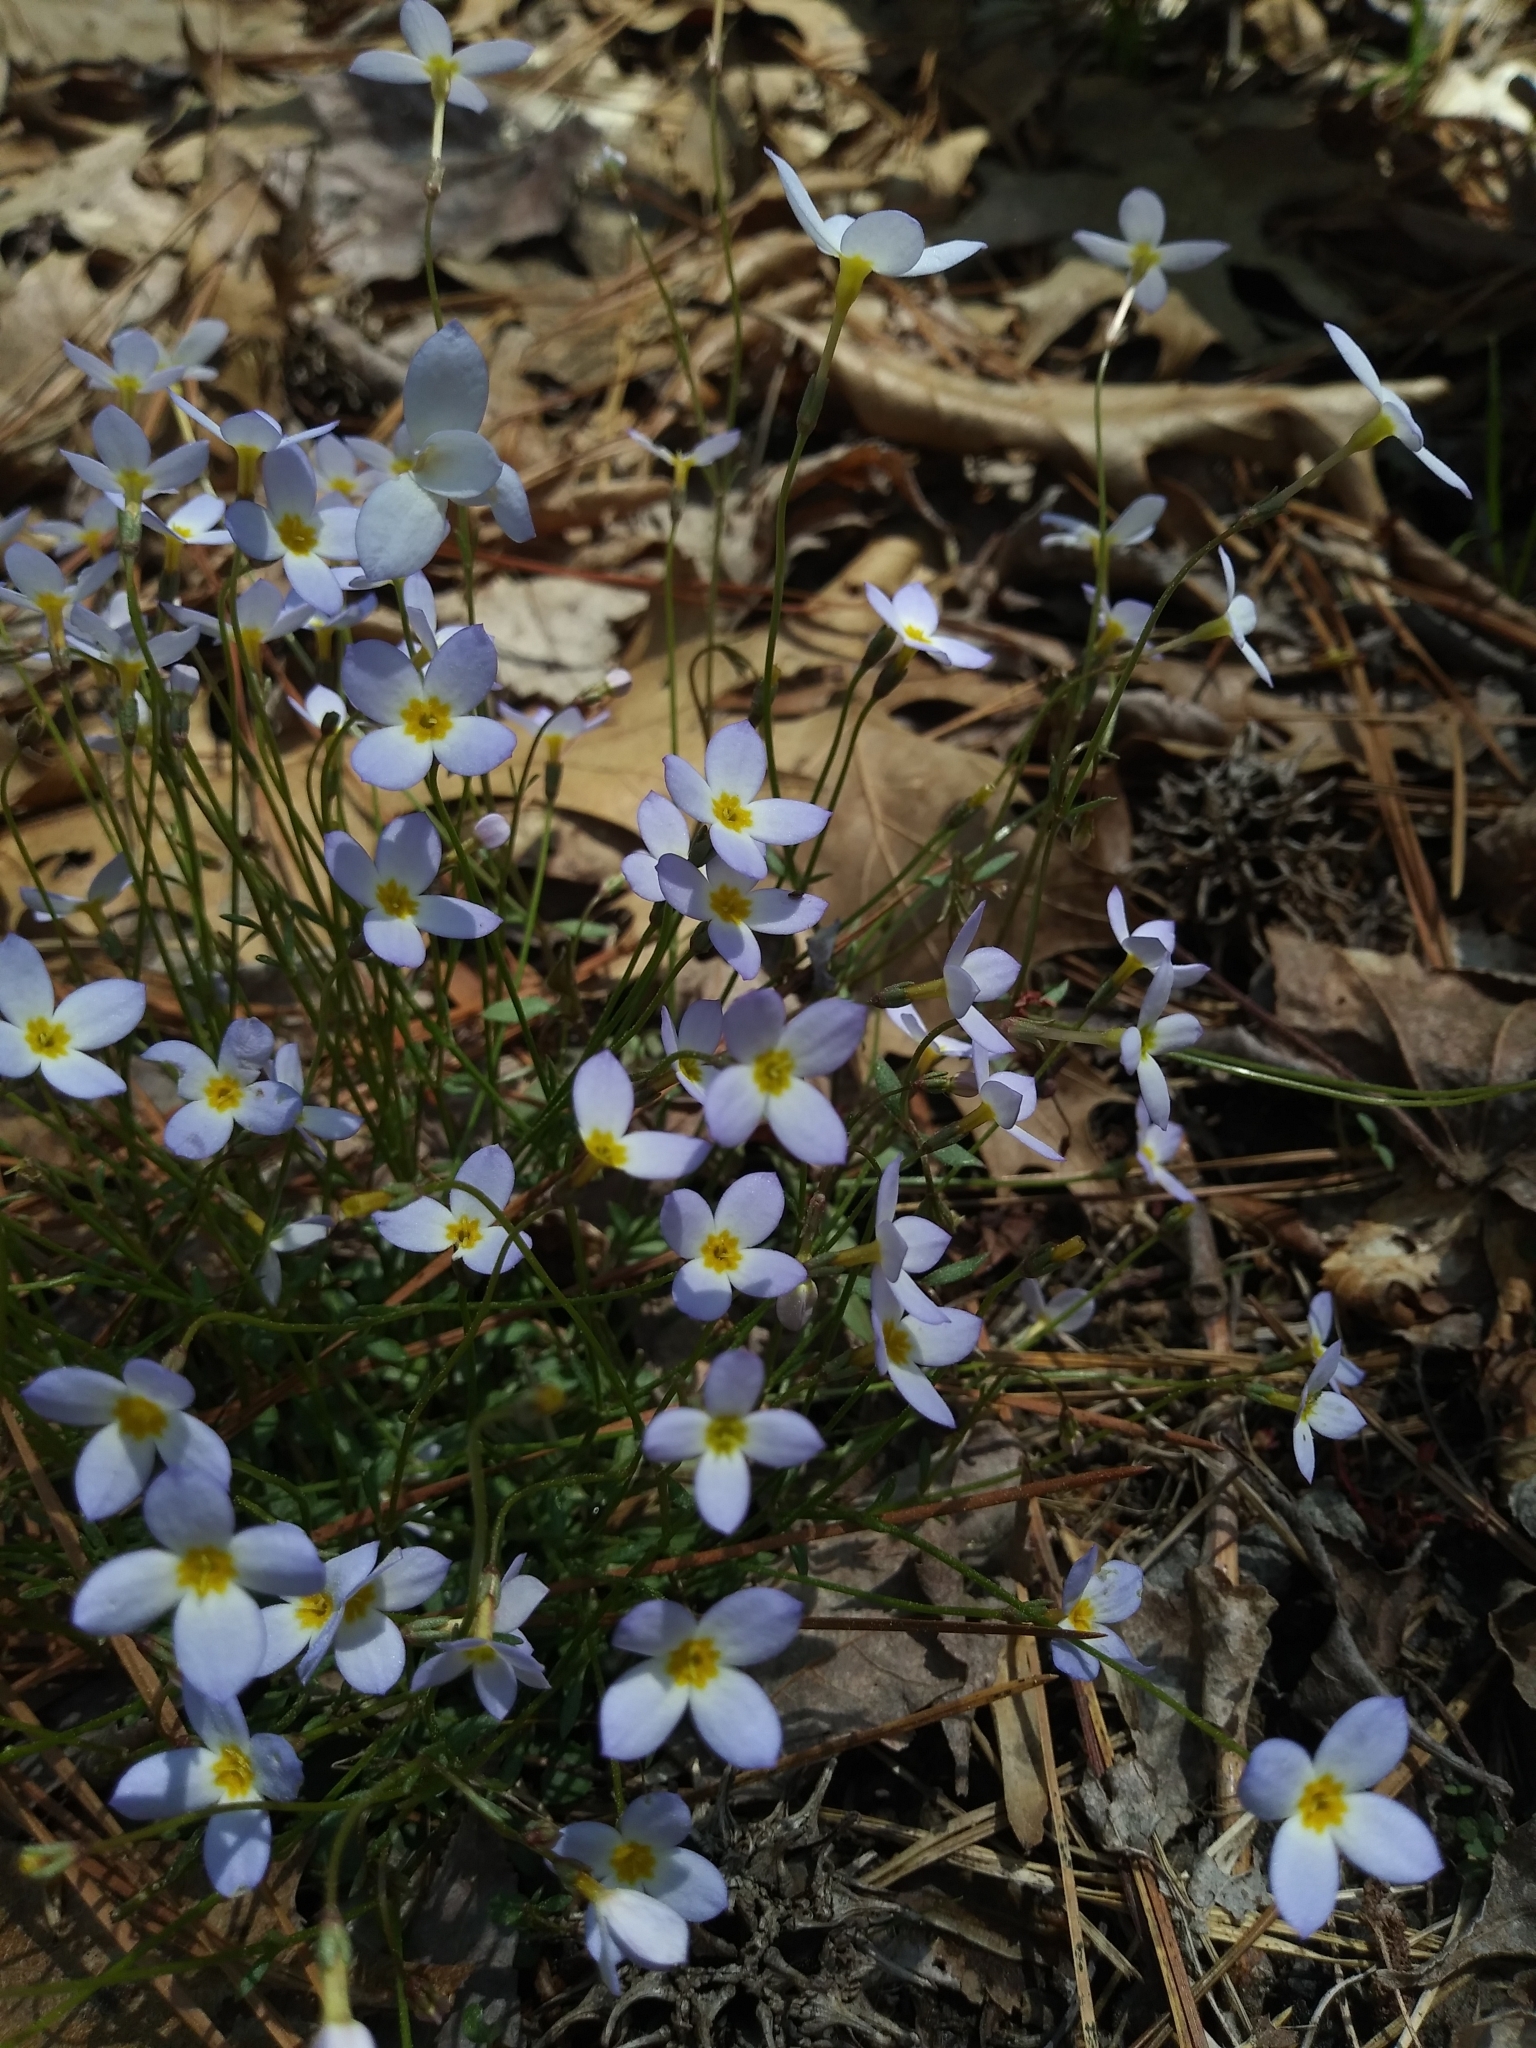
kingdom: Plantae
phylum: Tracheophyta
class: Magnoliopsida
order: Gentianales
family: Rubiaceae
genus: Houstonia
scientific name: Houstonia caerulea
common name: Bluets
